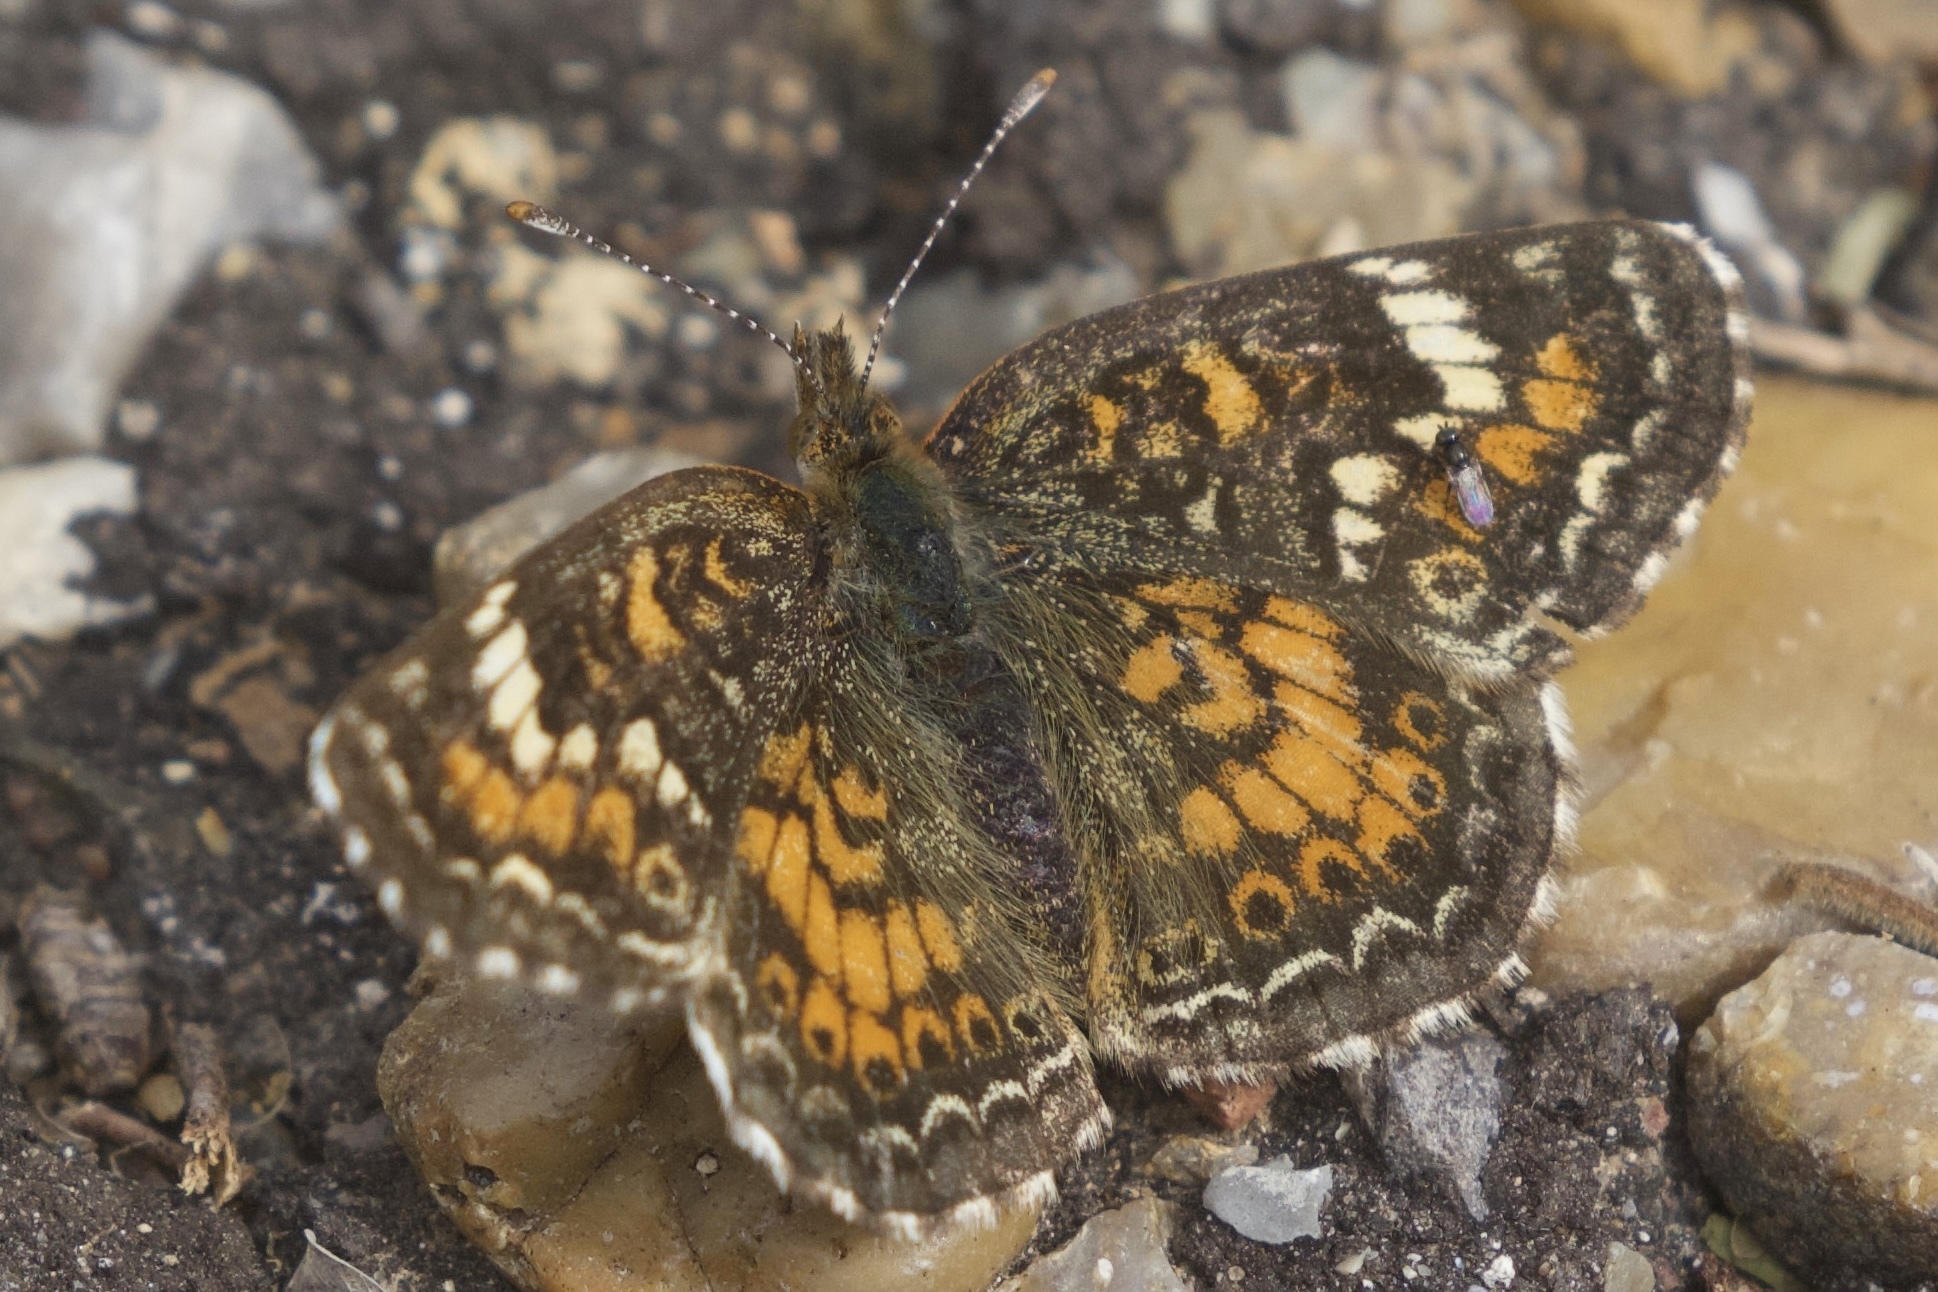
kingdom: Animalia
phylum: Arthropoda
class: Insecta
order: Lepidoptera
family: Nymphalidae
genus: Phyciodes
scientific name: Phyciodes phaon
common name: Phaon crescent
